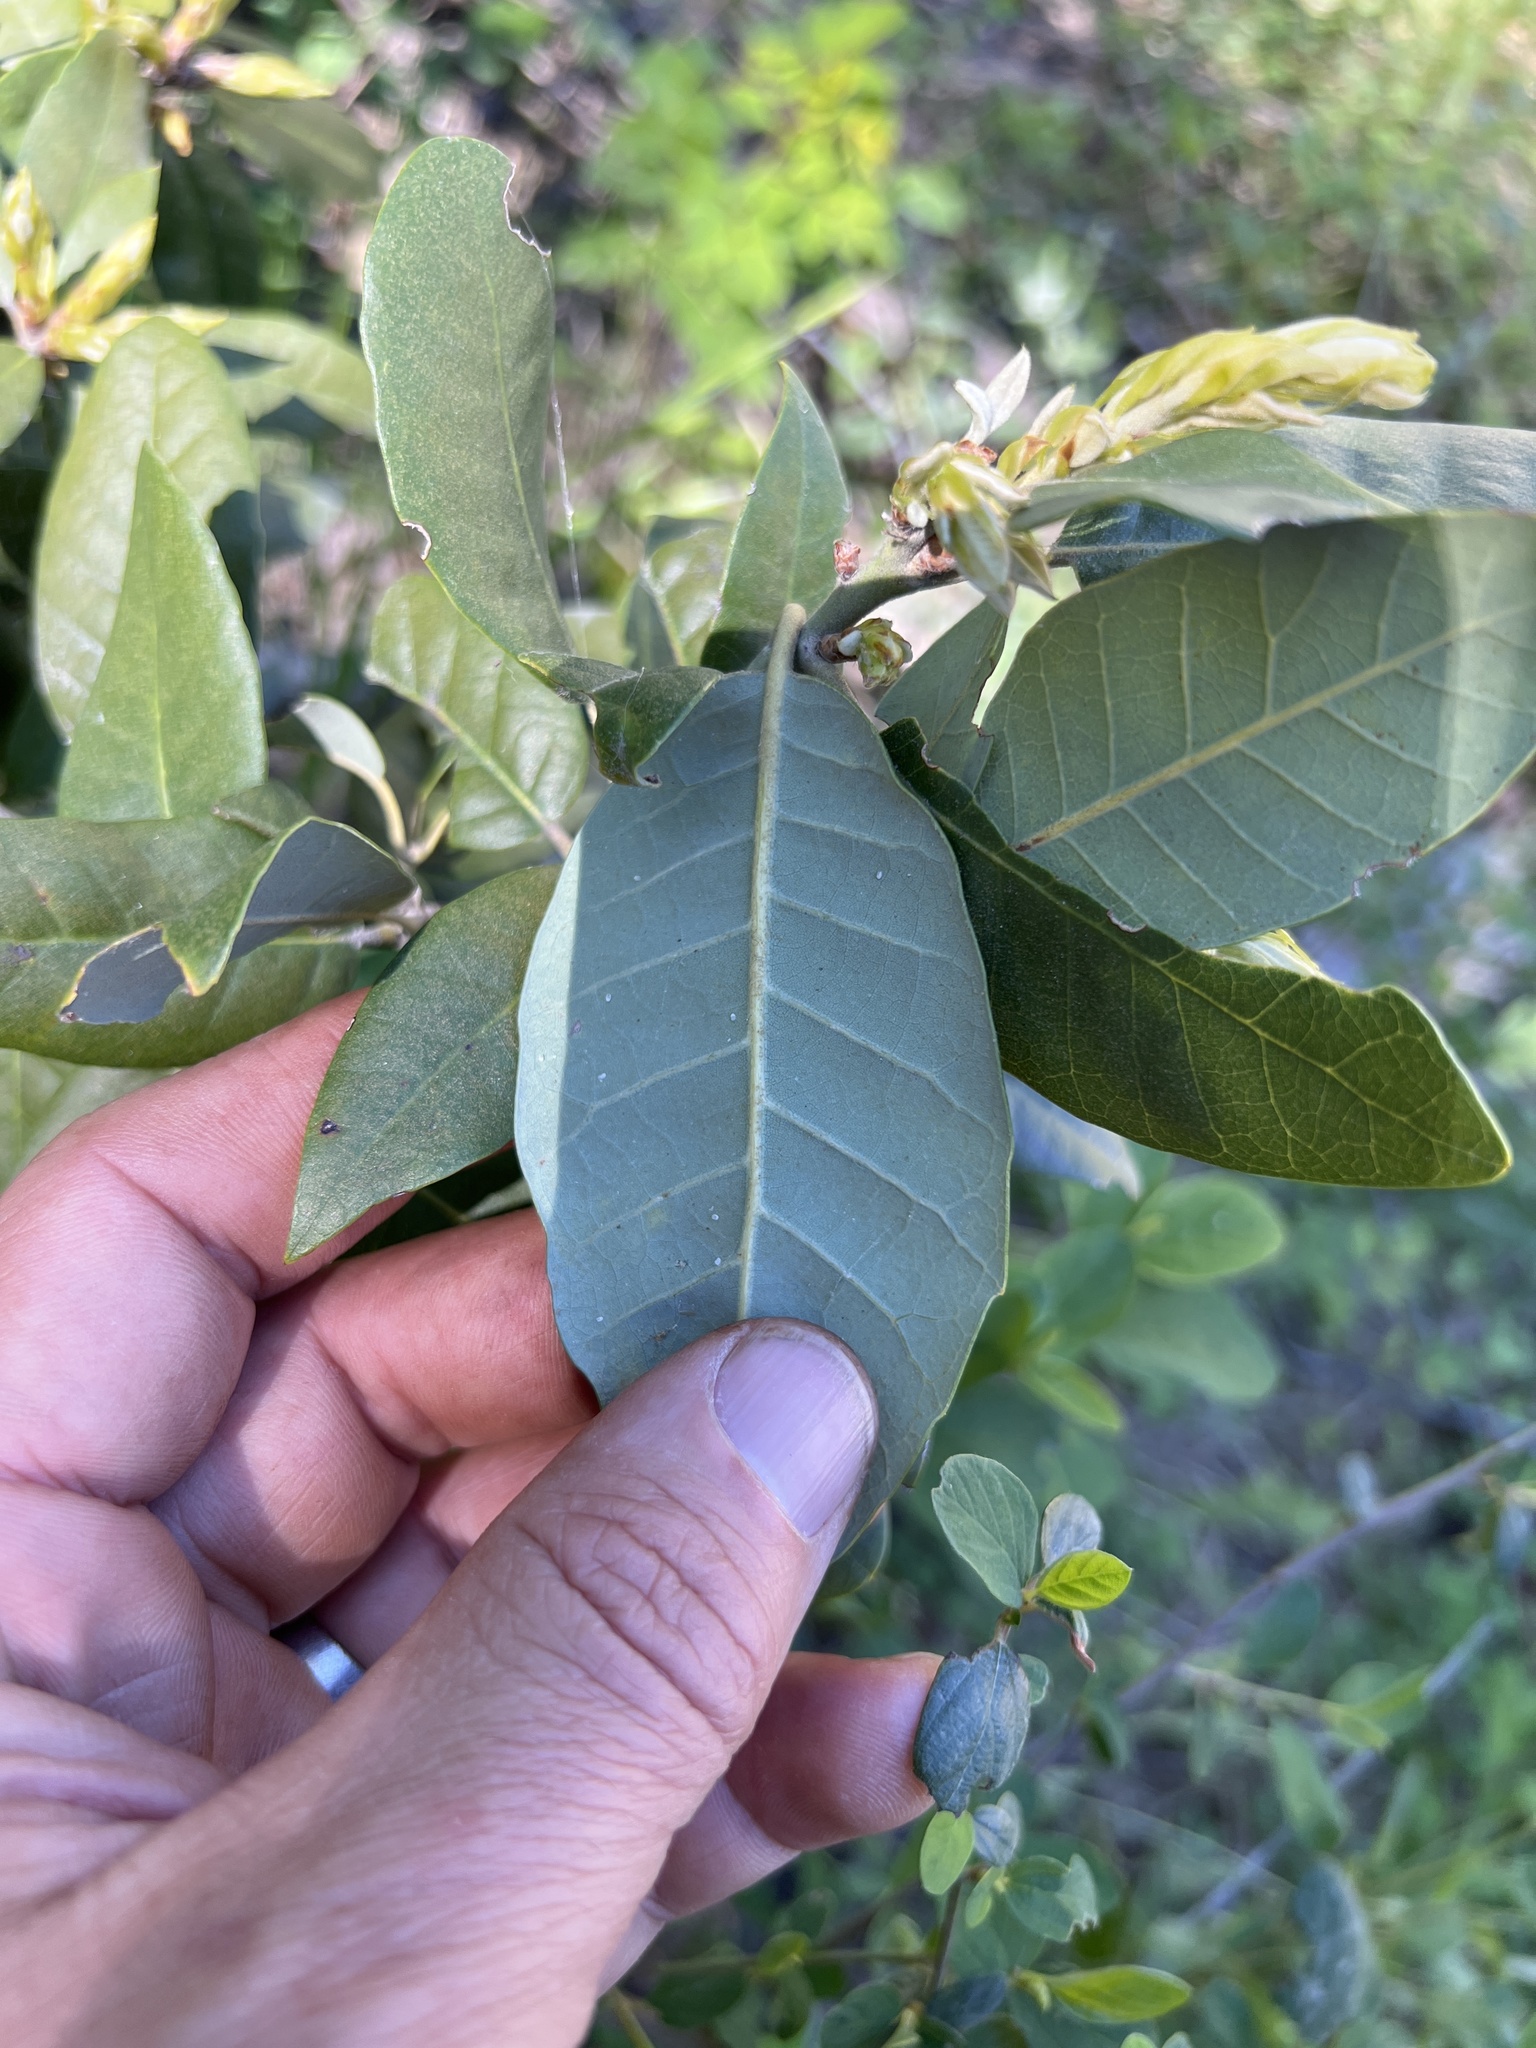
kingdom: Plantae
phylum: Tracheophyta
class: Magnoliopsida
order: Fagales
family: Fagaceae
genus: Notholithocarpus
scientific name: Notholithocarpus densiflorus
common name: Tan bark oak
